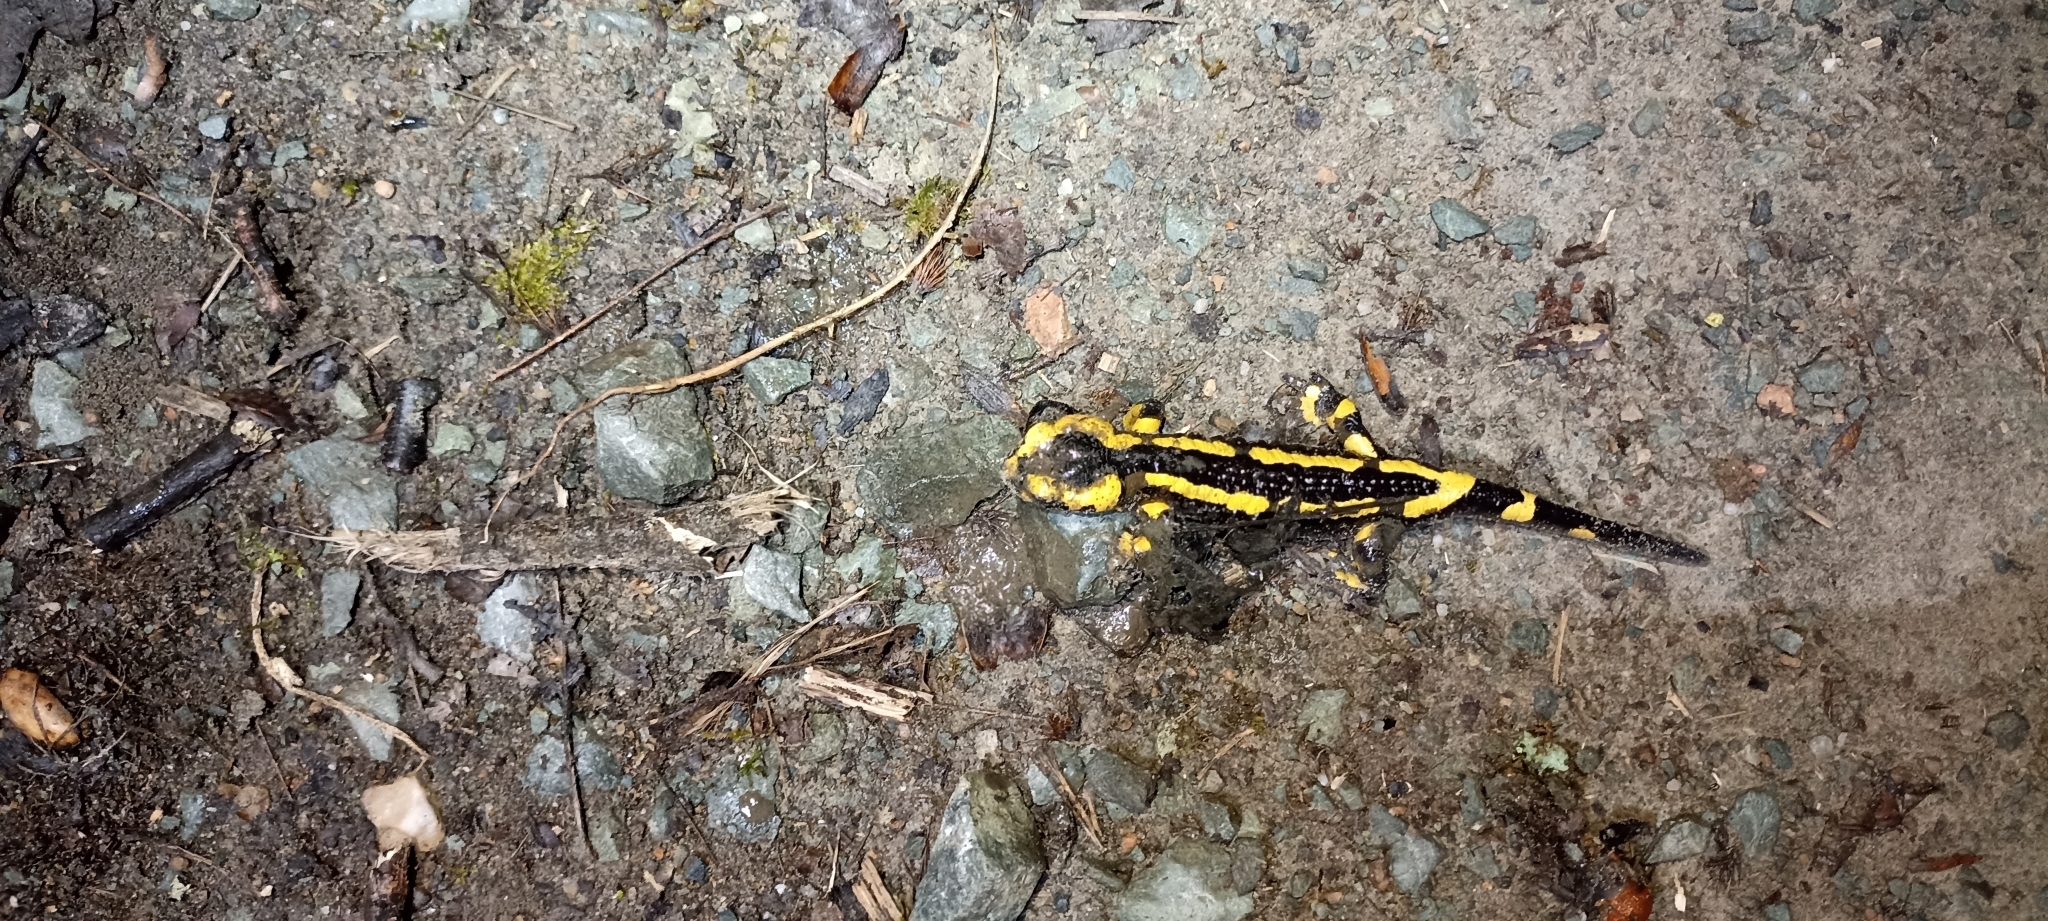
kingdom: Animalia
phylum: Chordata
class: Amphibia
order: Caudata
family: Salamandridae
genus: Salamandra
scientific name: Salamandra salamandra
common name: Fire salamander
